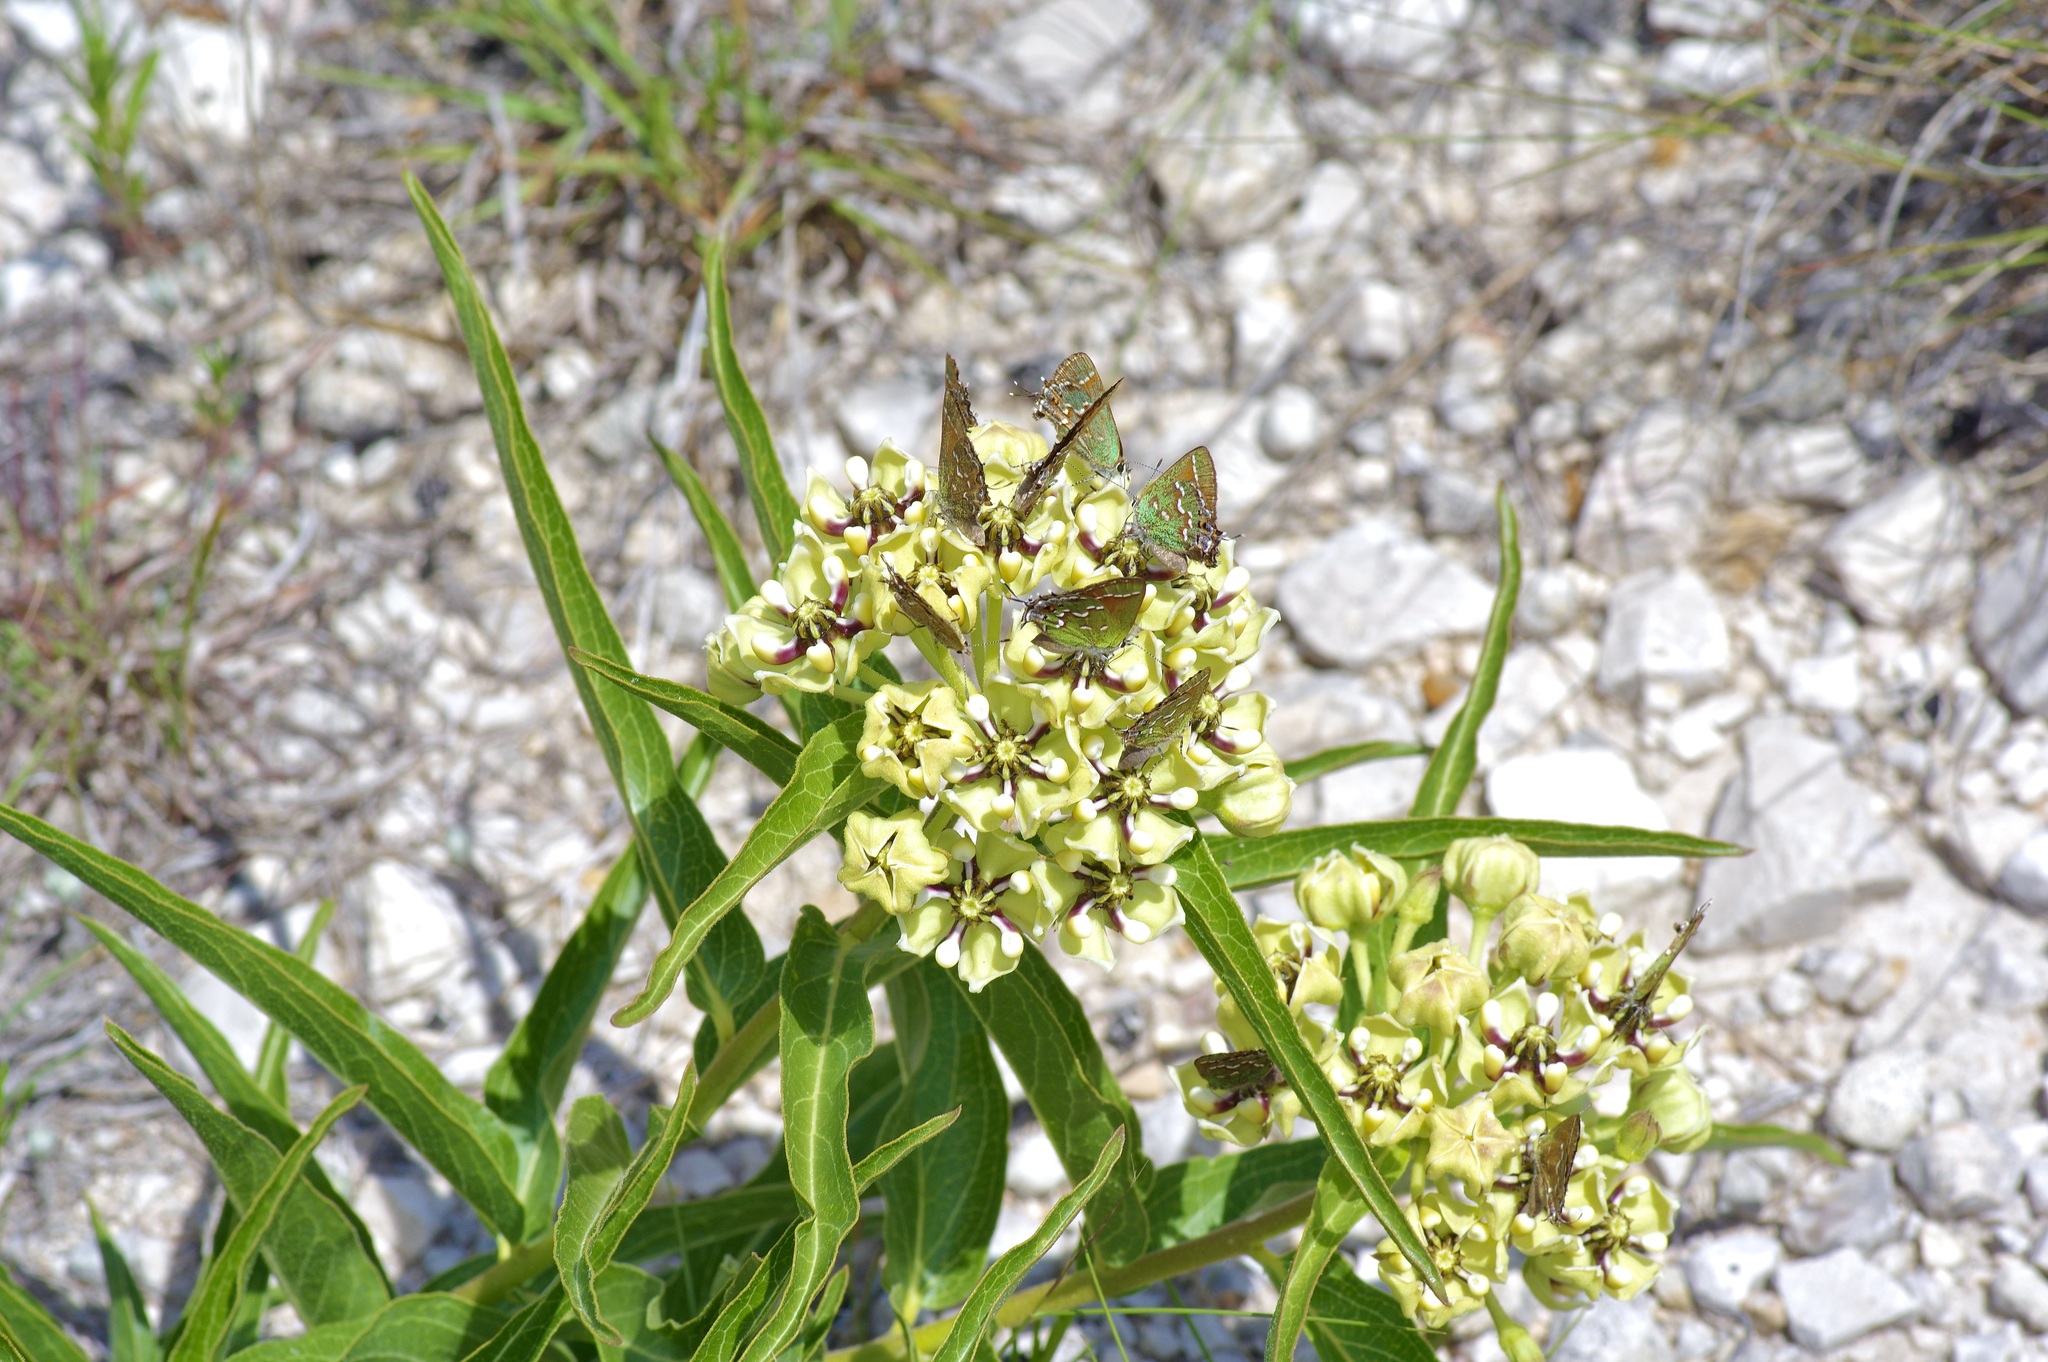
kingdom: Plantae
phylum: Tracheophyta
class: Magnoliopsida
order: Gentianales
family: Apocynaceae
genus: Asclepias
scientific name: Asclepias asperula
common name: Antelope horns
